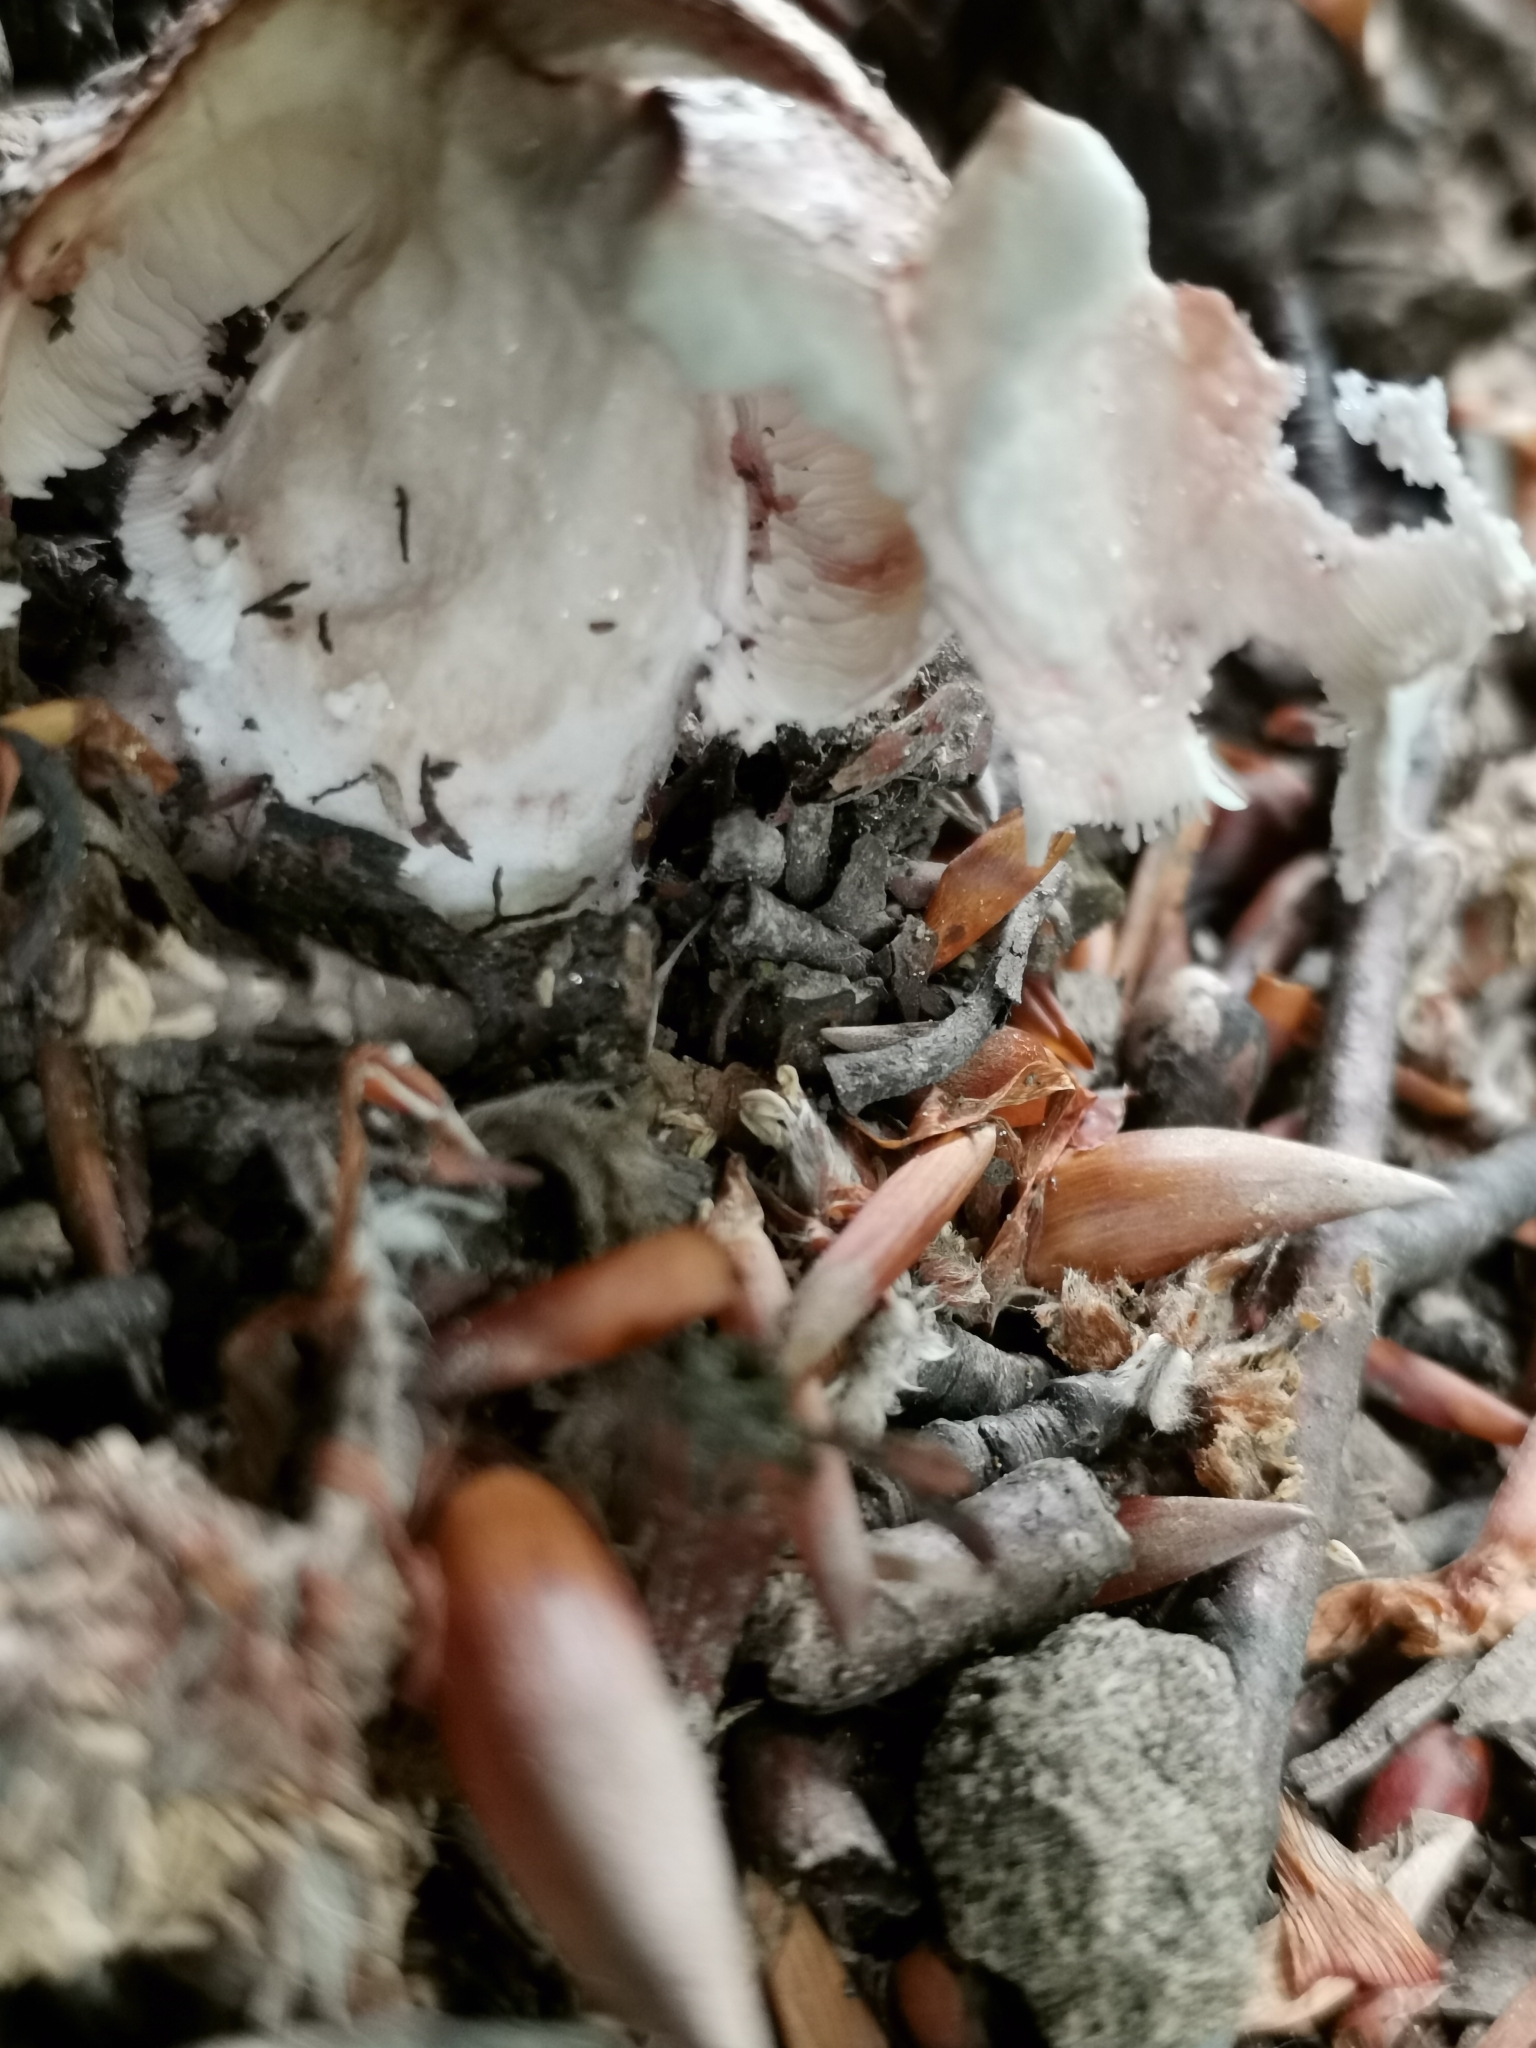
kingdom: Fungi
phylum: Basidiomycota
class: Agaricomycetes
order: Agaricales
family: Amanitaceae
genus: Amanita
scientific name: Amanita rubescens
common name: Blusher
